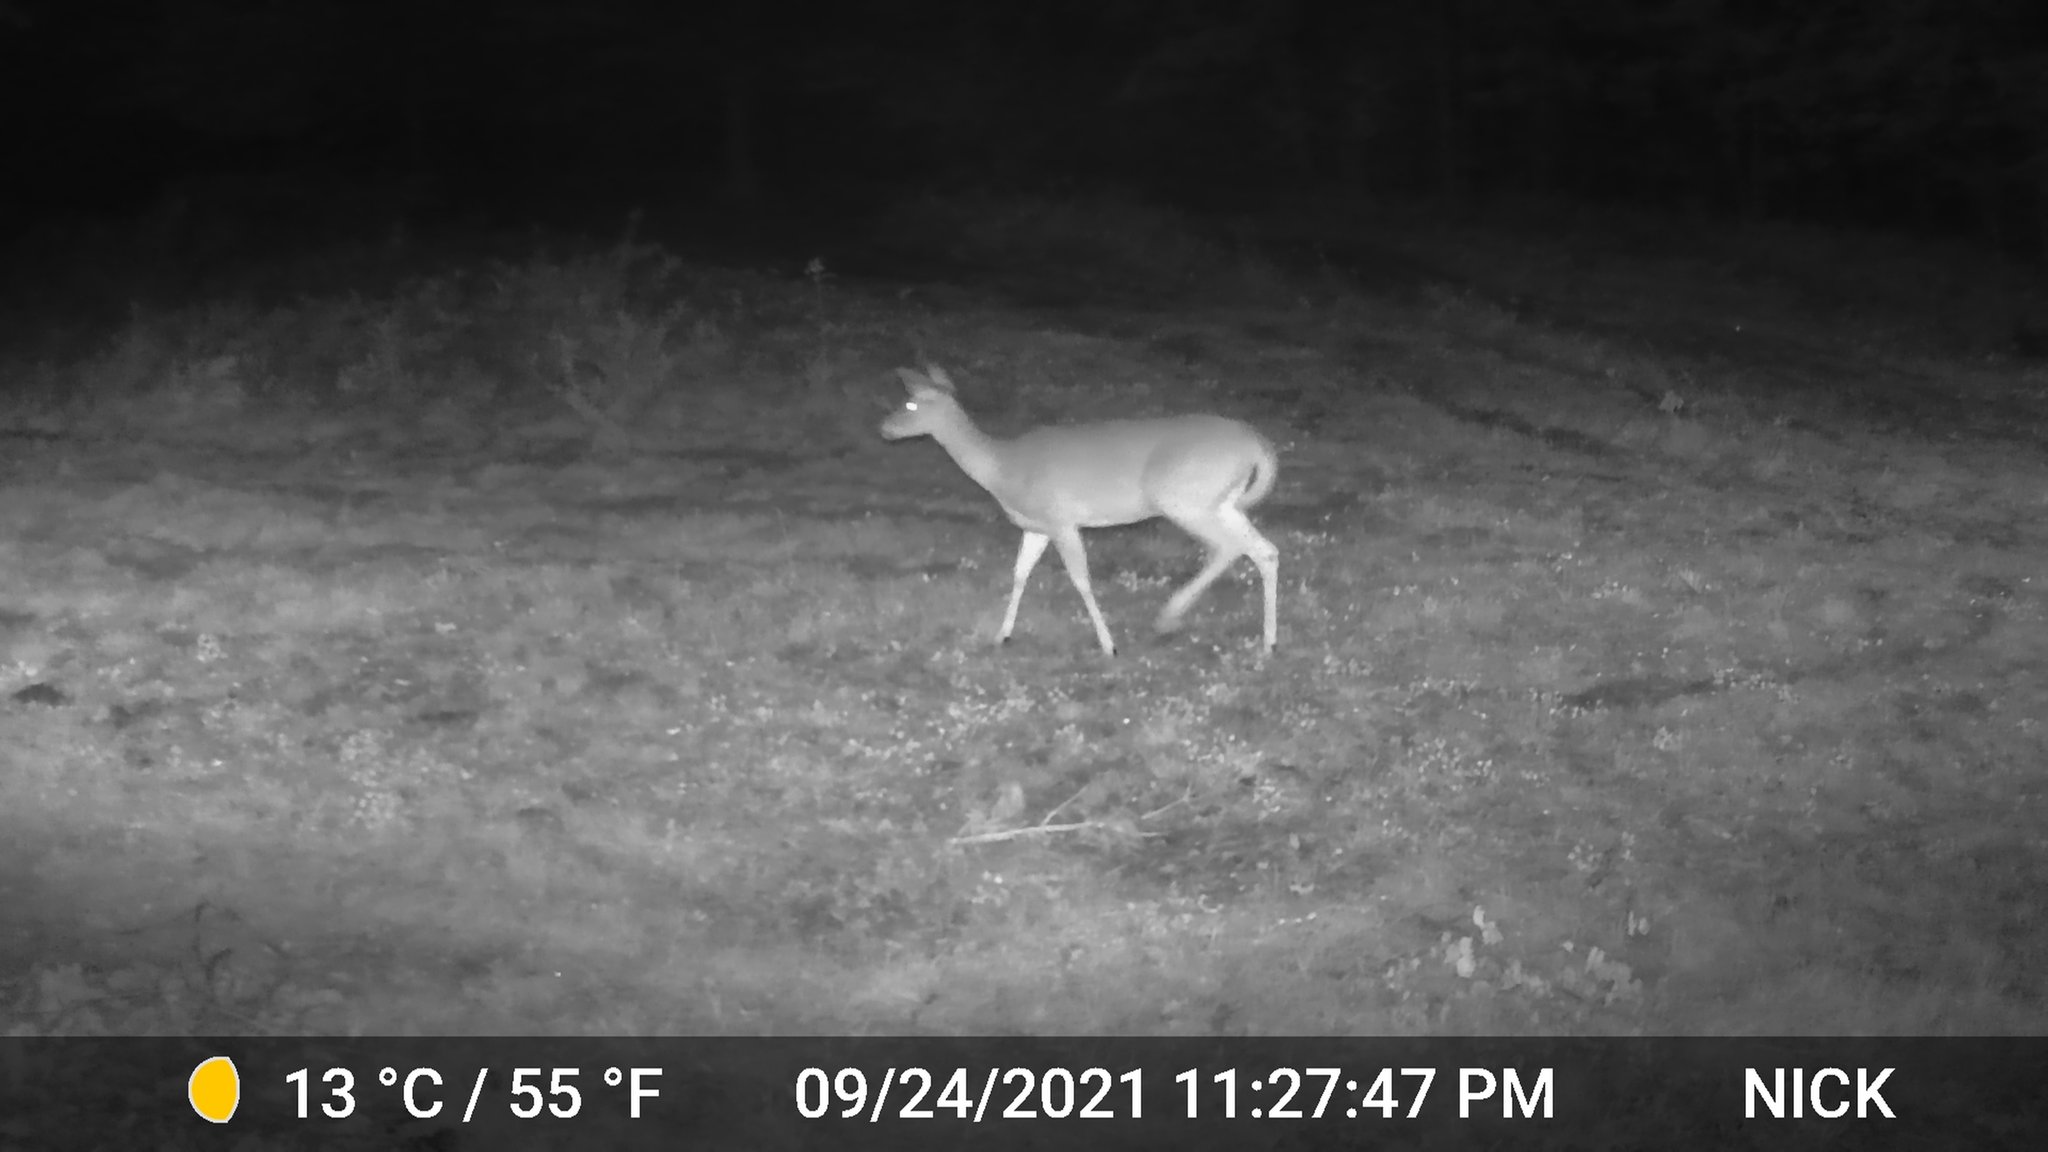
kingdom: Animalia
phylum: Chordata
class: Mammalia
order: Artiodactyla
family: Cervidae
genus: Odocoileus
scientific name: Odocoileus virginianus
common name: White-tailed deer
